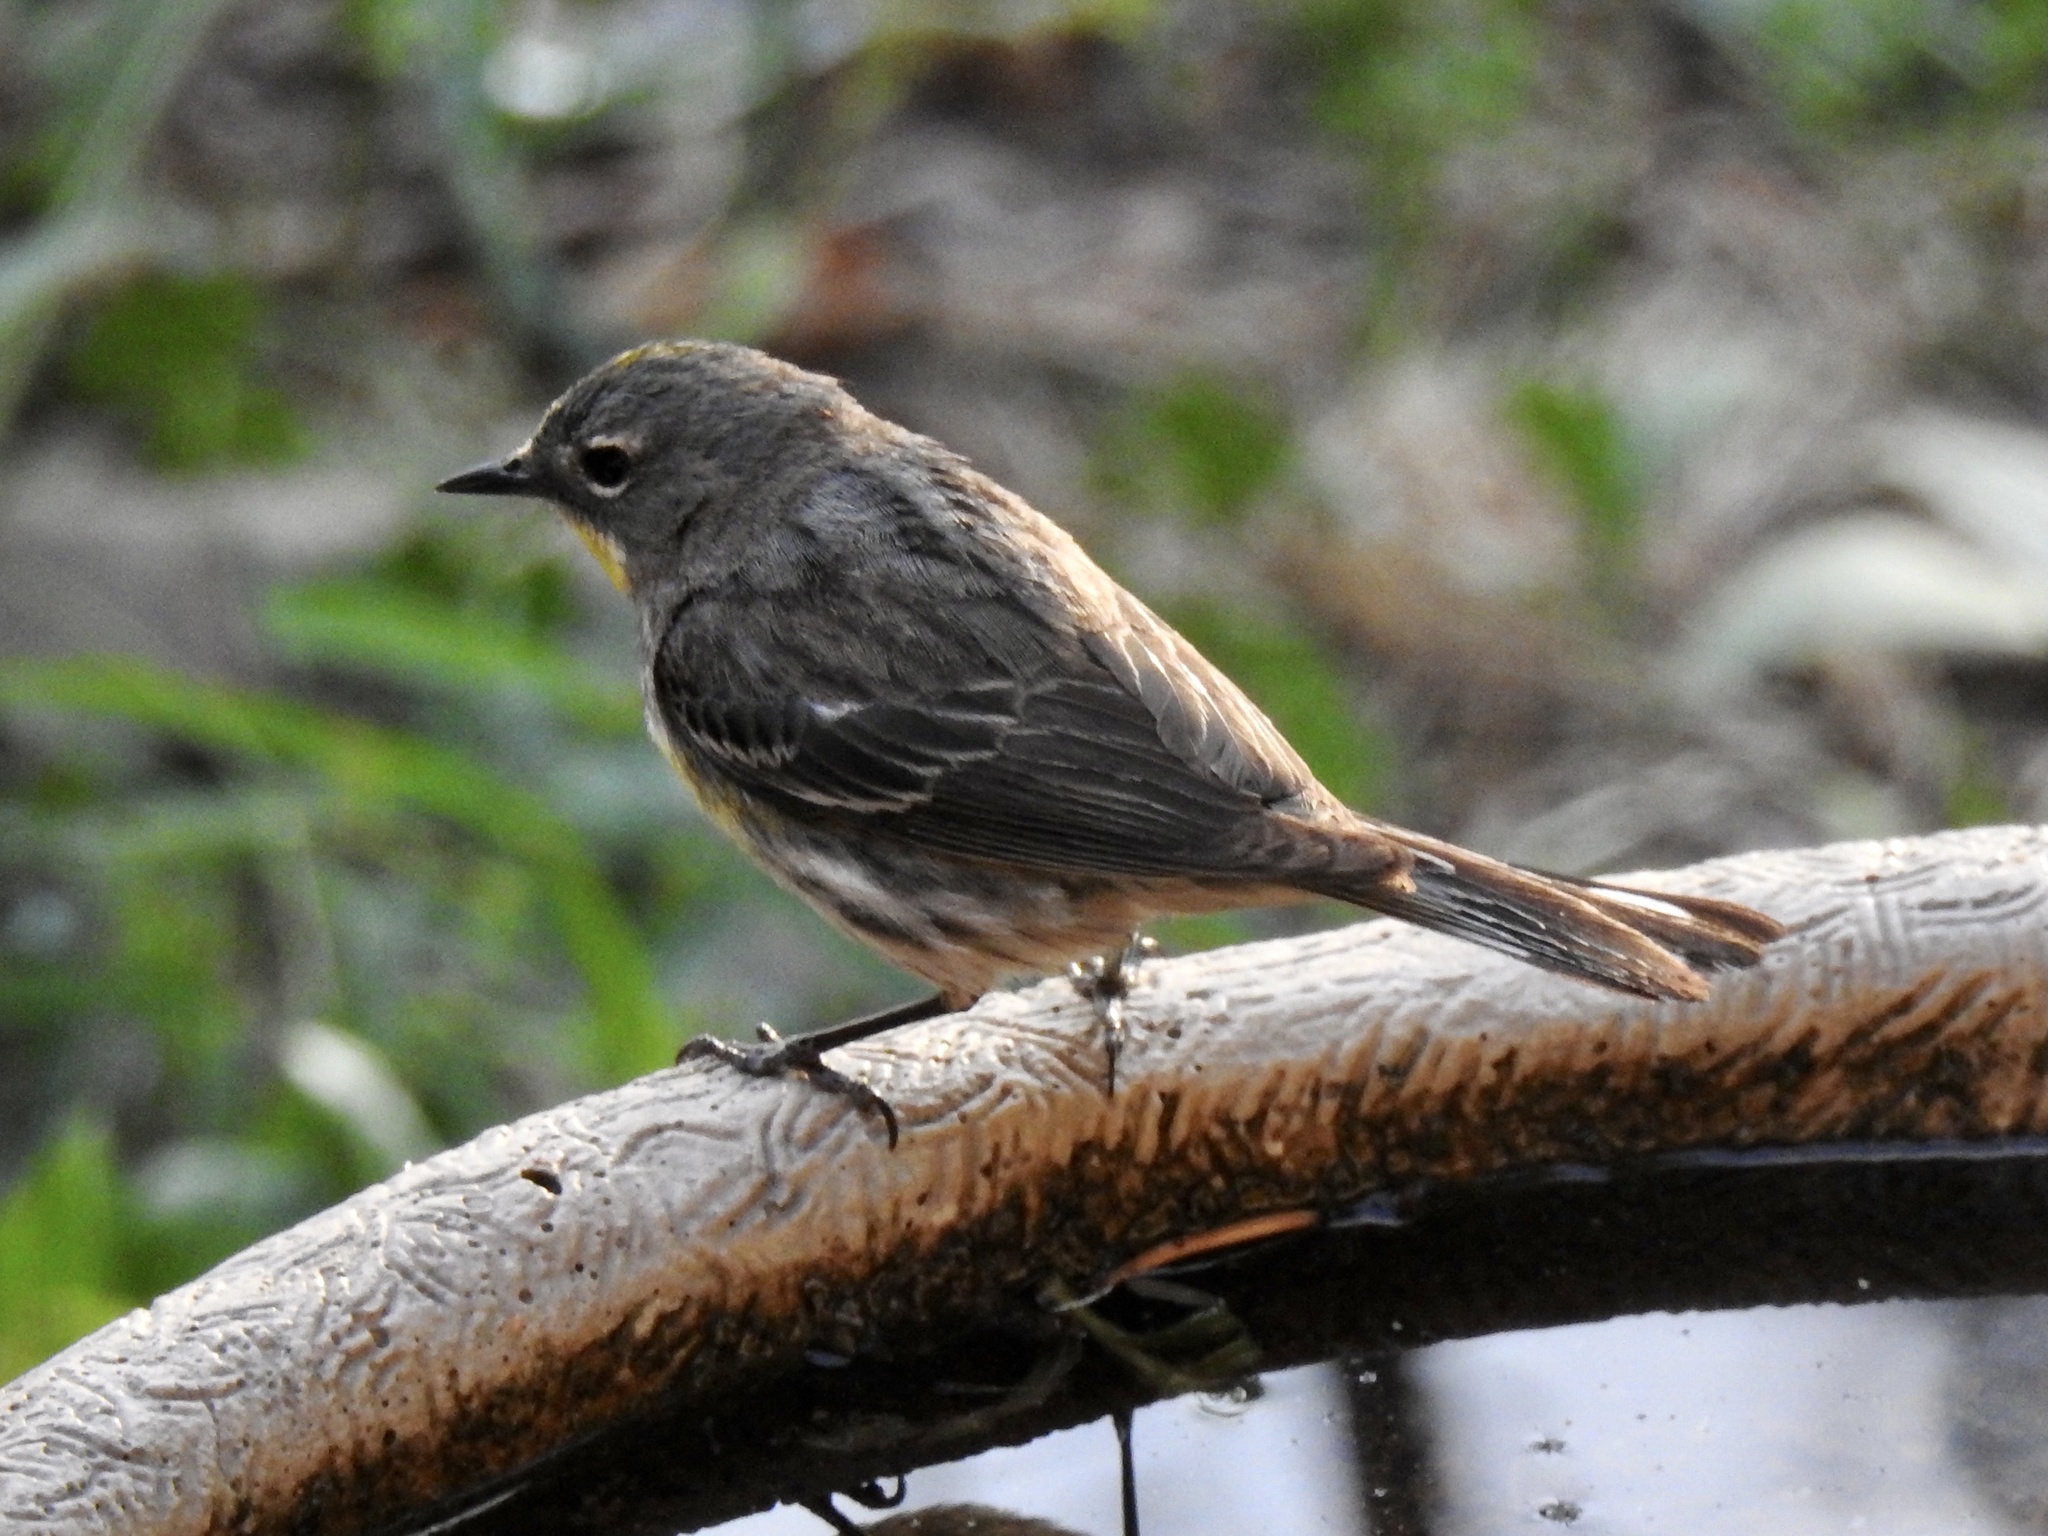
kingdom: Animalia
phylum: Chordata
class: Aves
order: Passeriformes
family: Parulidae
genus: Setophaga
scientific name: Setophaga coronata
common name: Myrtle warbler
